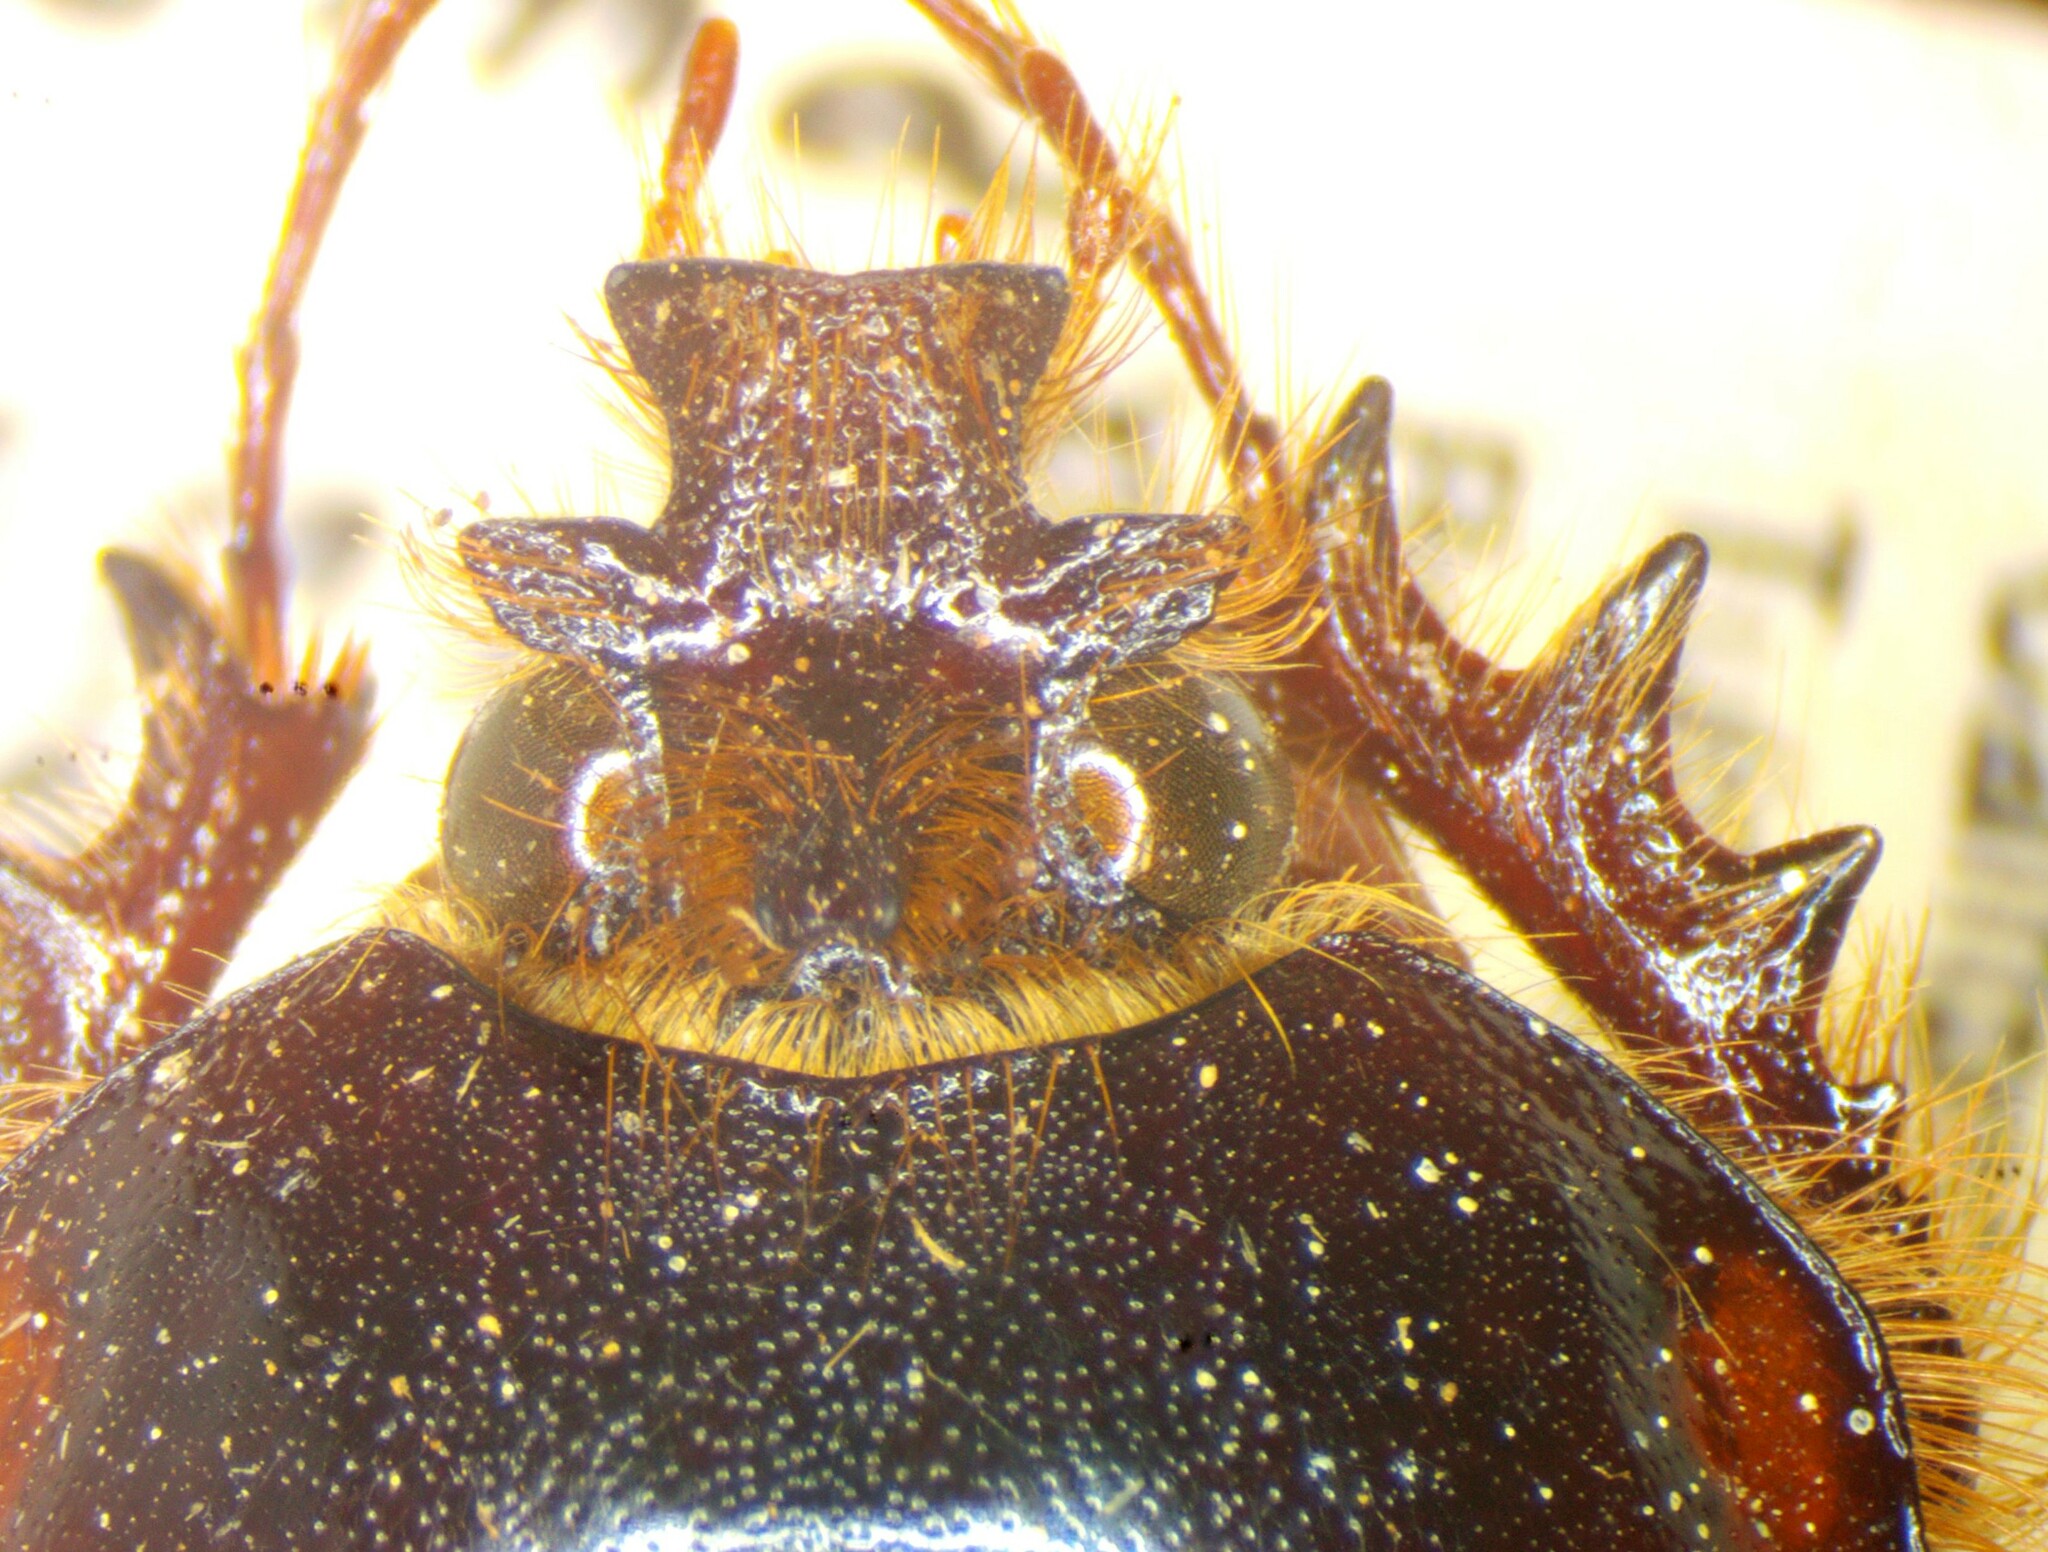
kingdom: Animalia
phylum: Arthropoda
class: Insecta
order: Coleoptera
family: Pleocomidae
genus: Pleocoma
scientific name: Pleocoma tularensis
